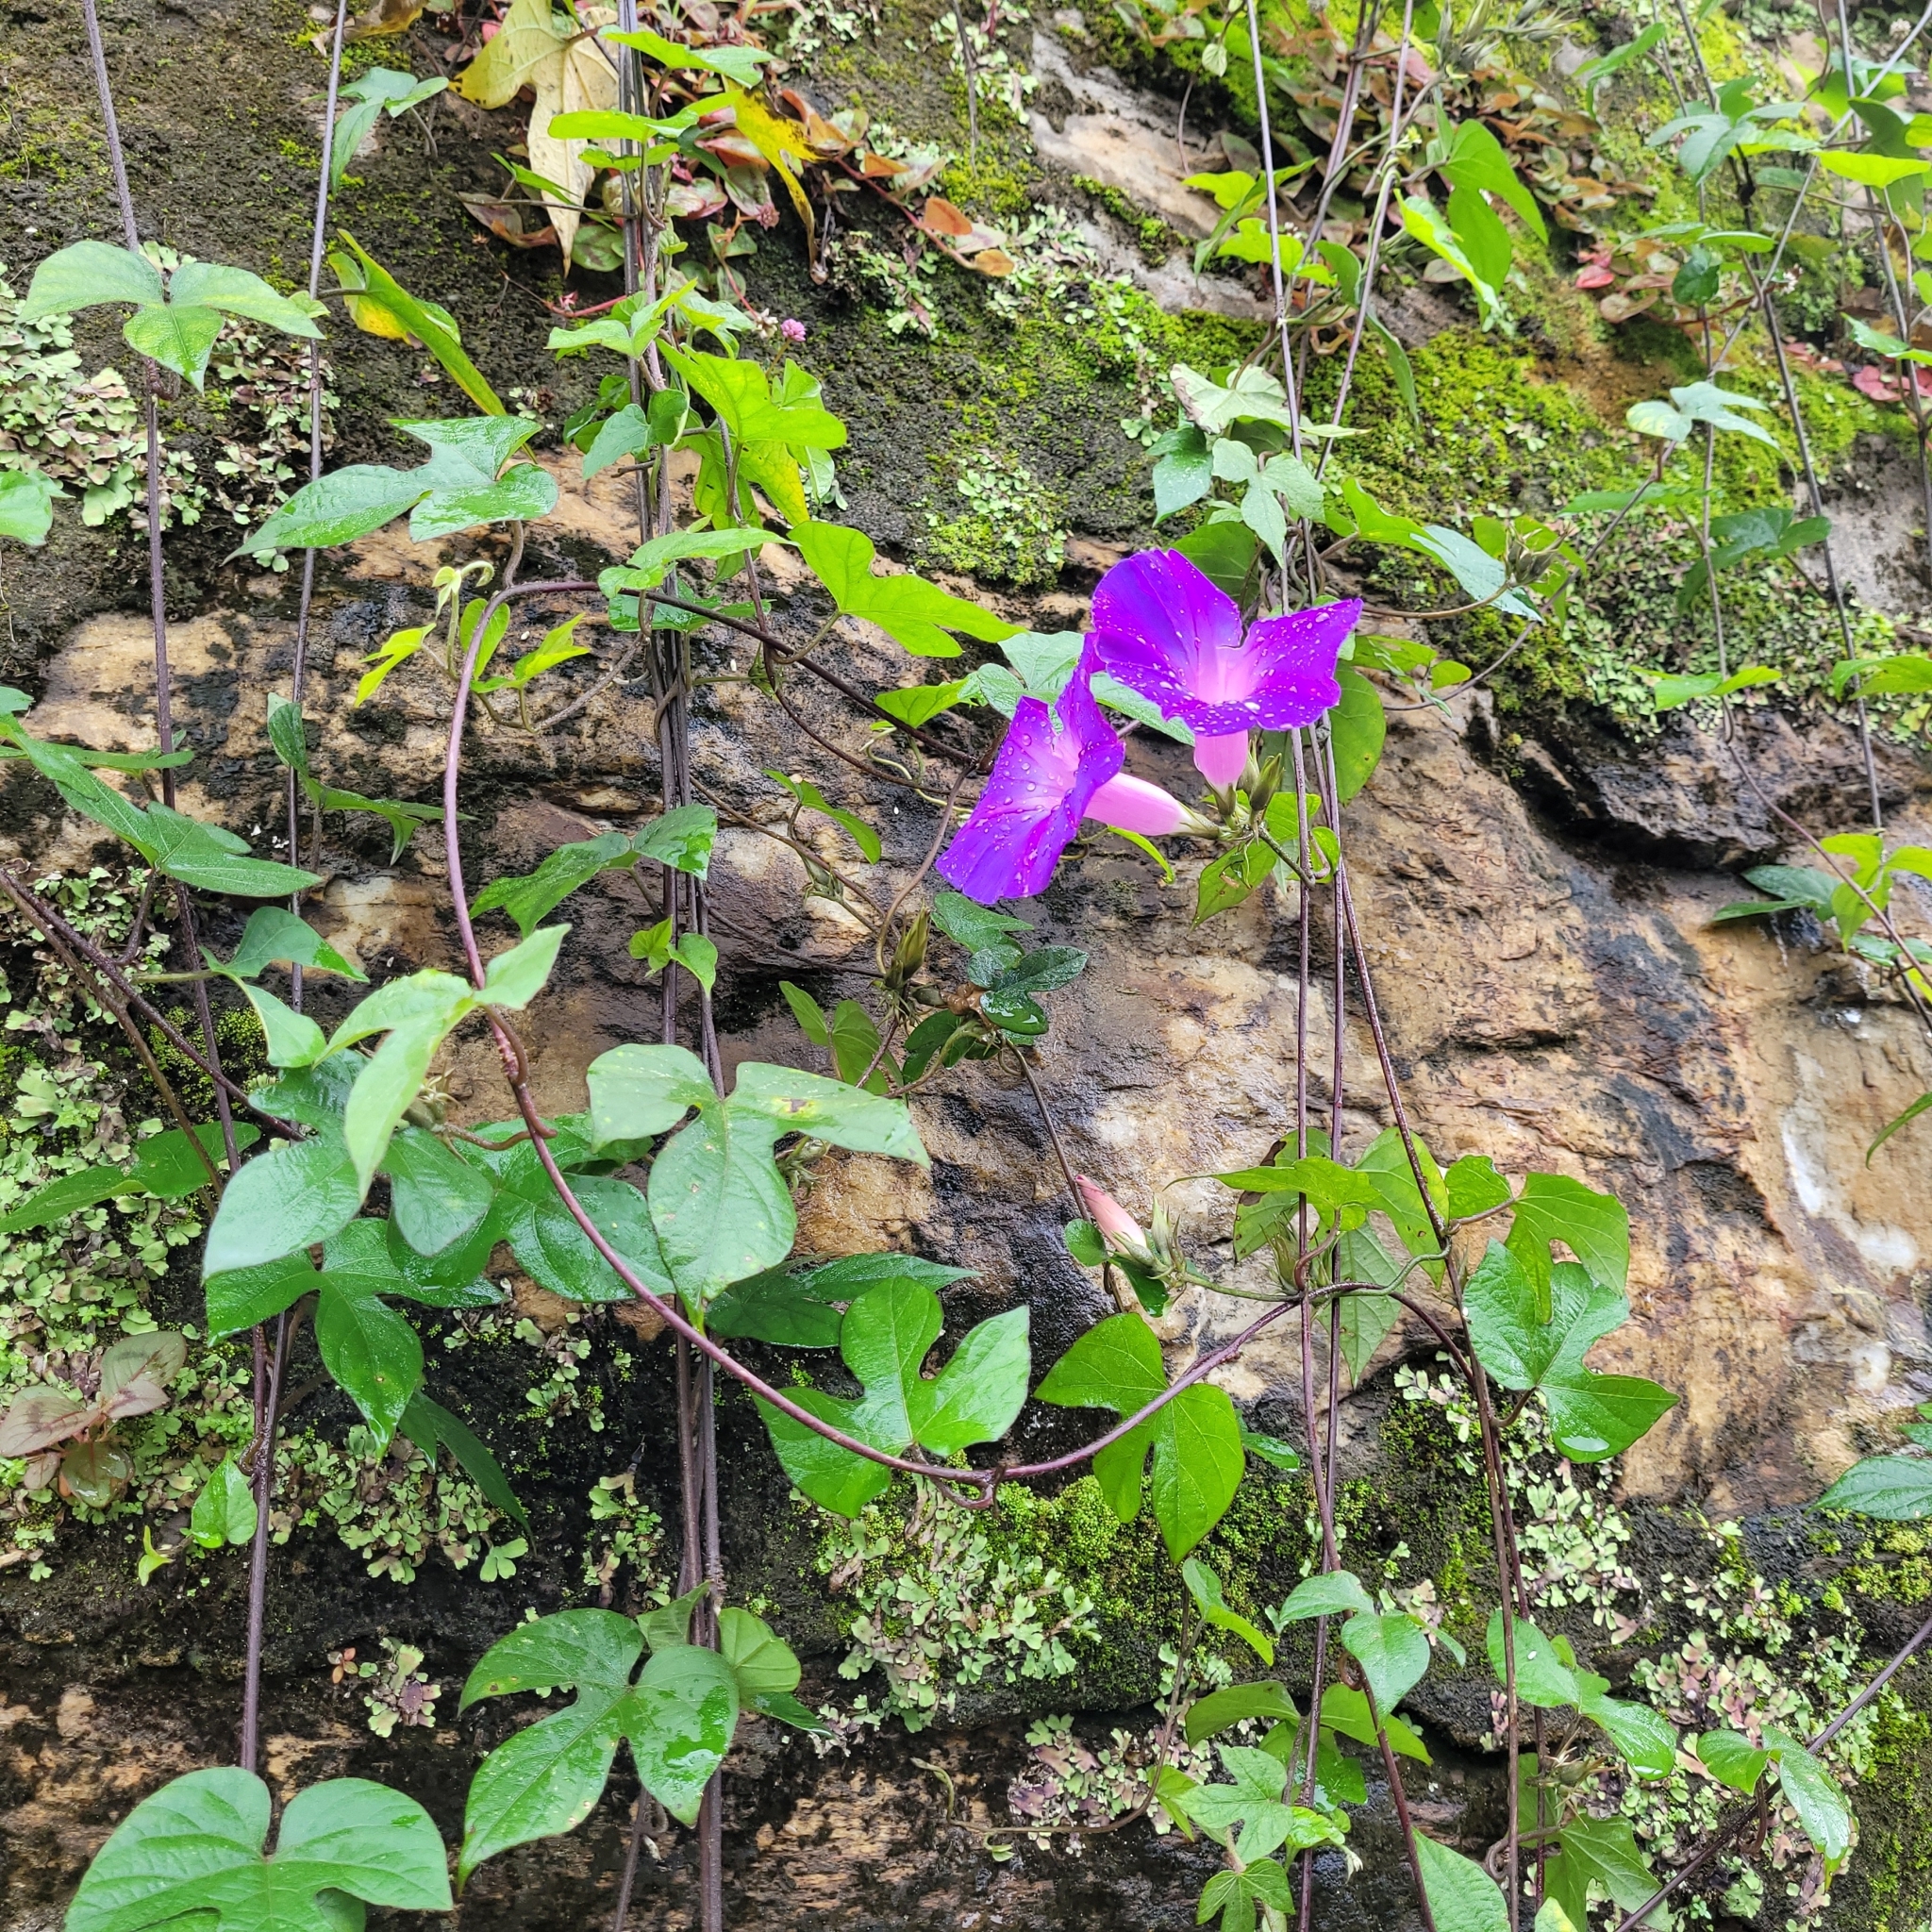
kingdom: Plantae
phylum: Tracheophyta
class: Magnoliopsida
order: Solanales
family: Convolvulaceae
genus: Ipomoea
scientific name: Ipomoea indica
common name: Blue dawnflower
